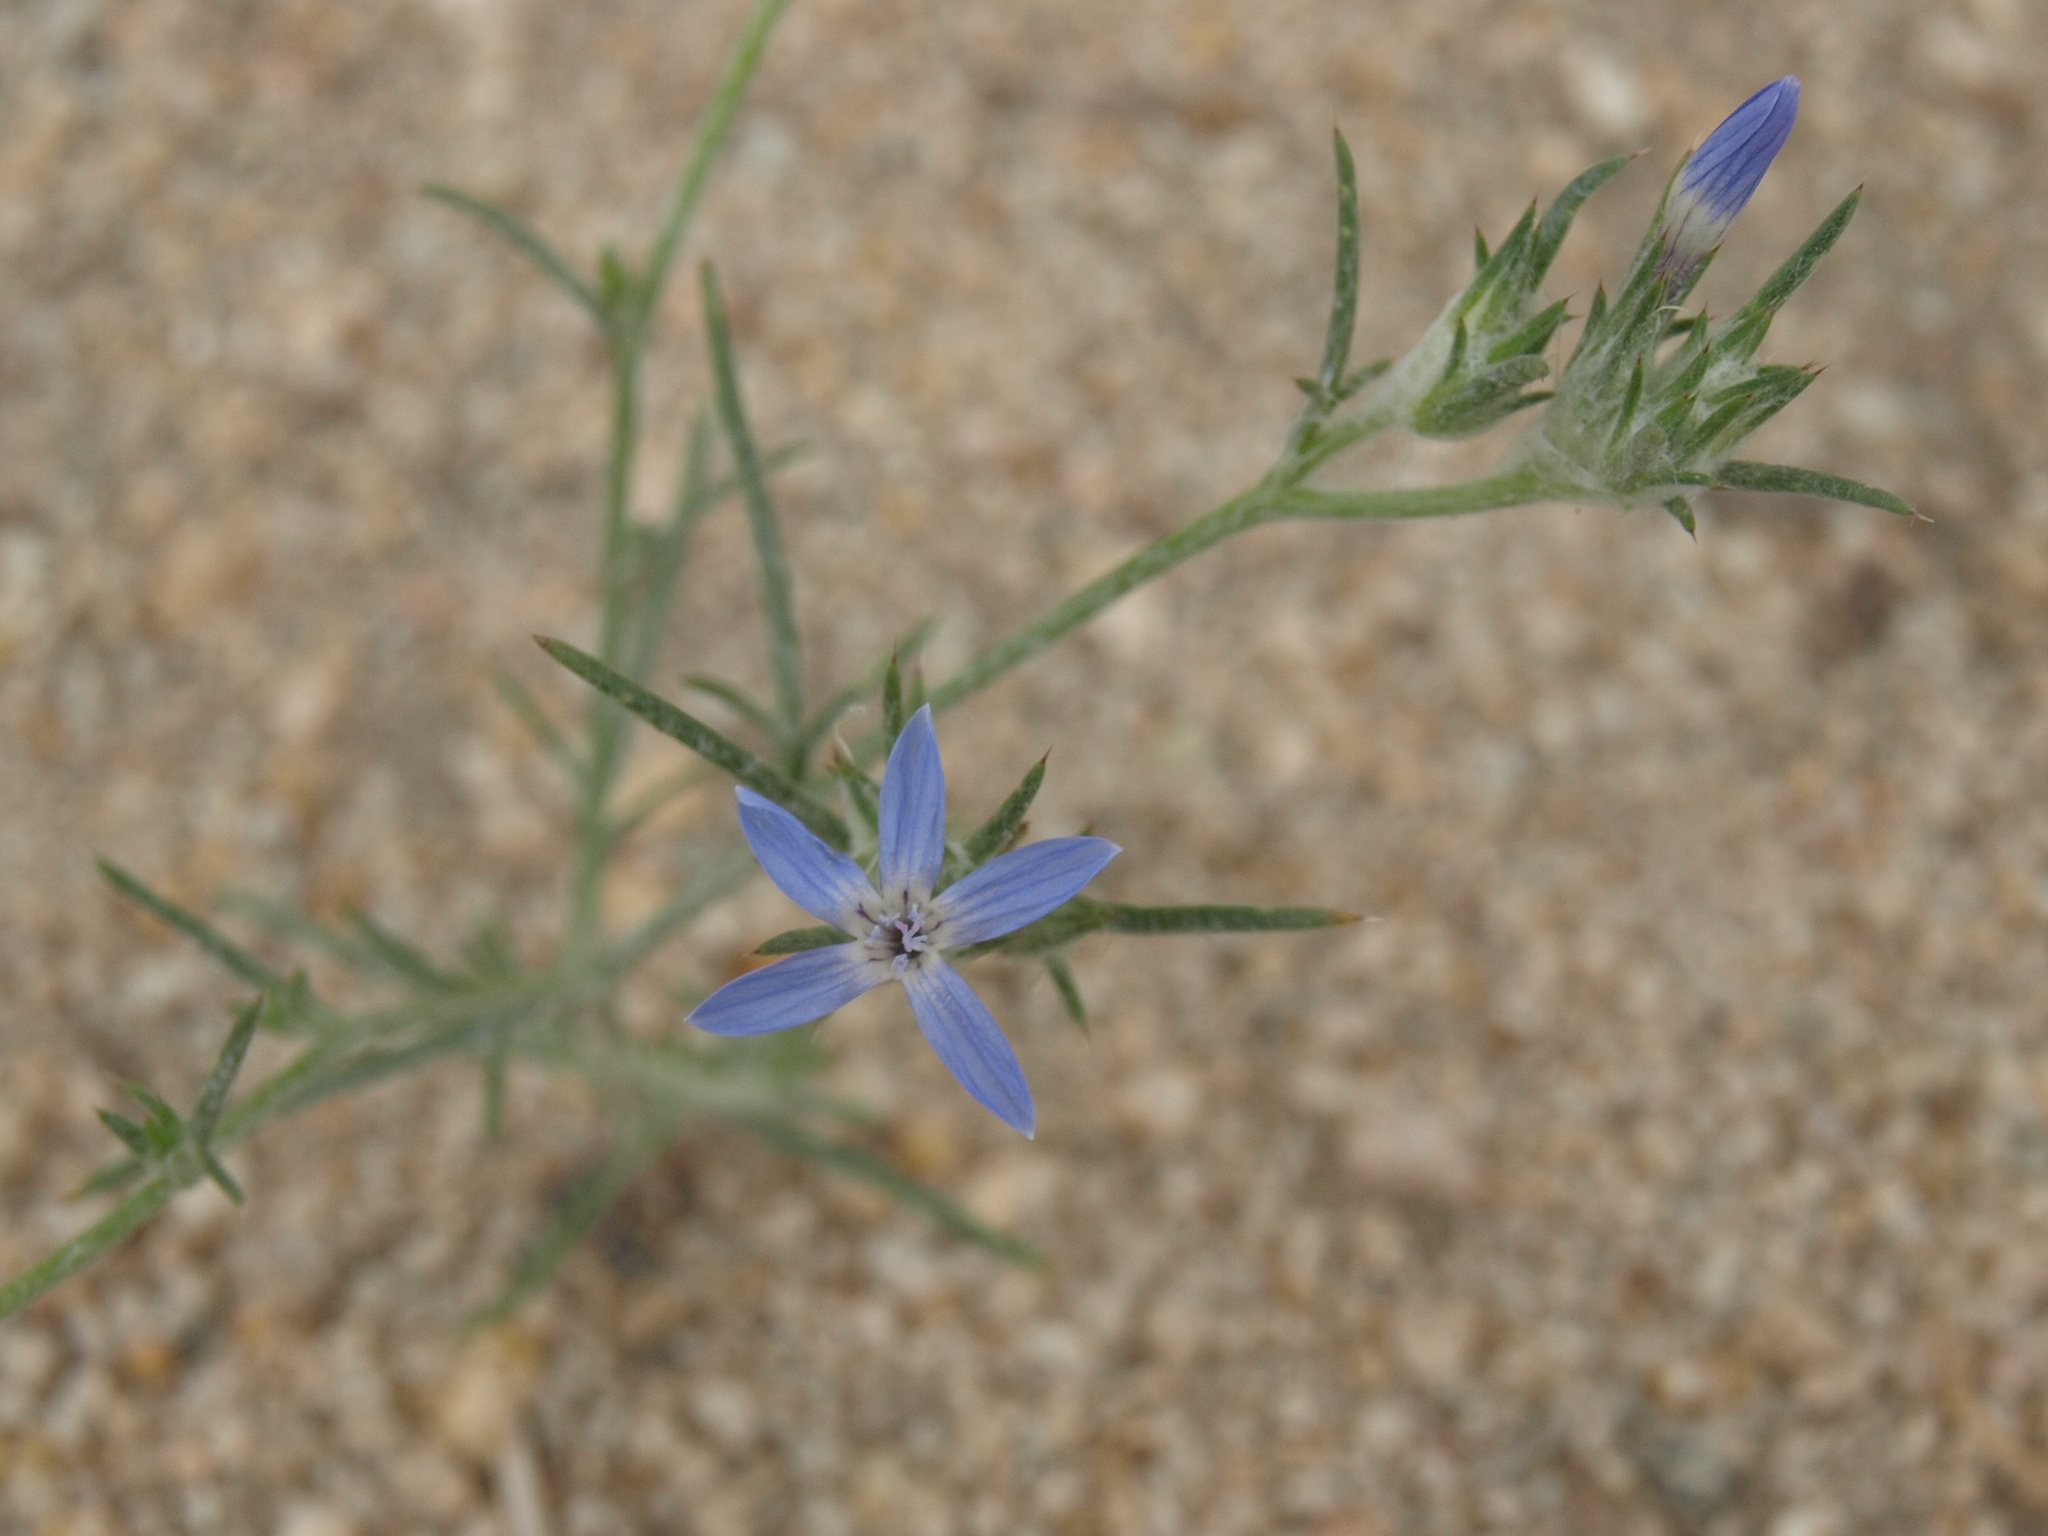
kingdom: Plantae
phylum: Tracheophyta
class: Magnoliopsida
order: Ericales
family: Polemoniaceae
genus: Eriastrum
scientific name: Eriastrum wilcoxii
